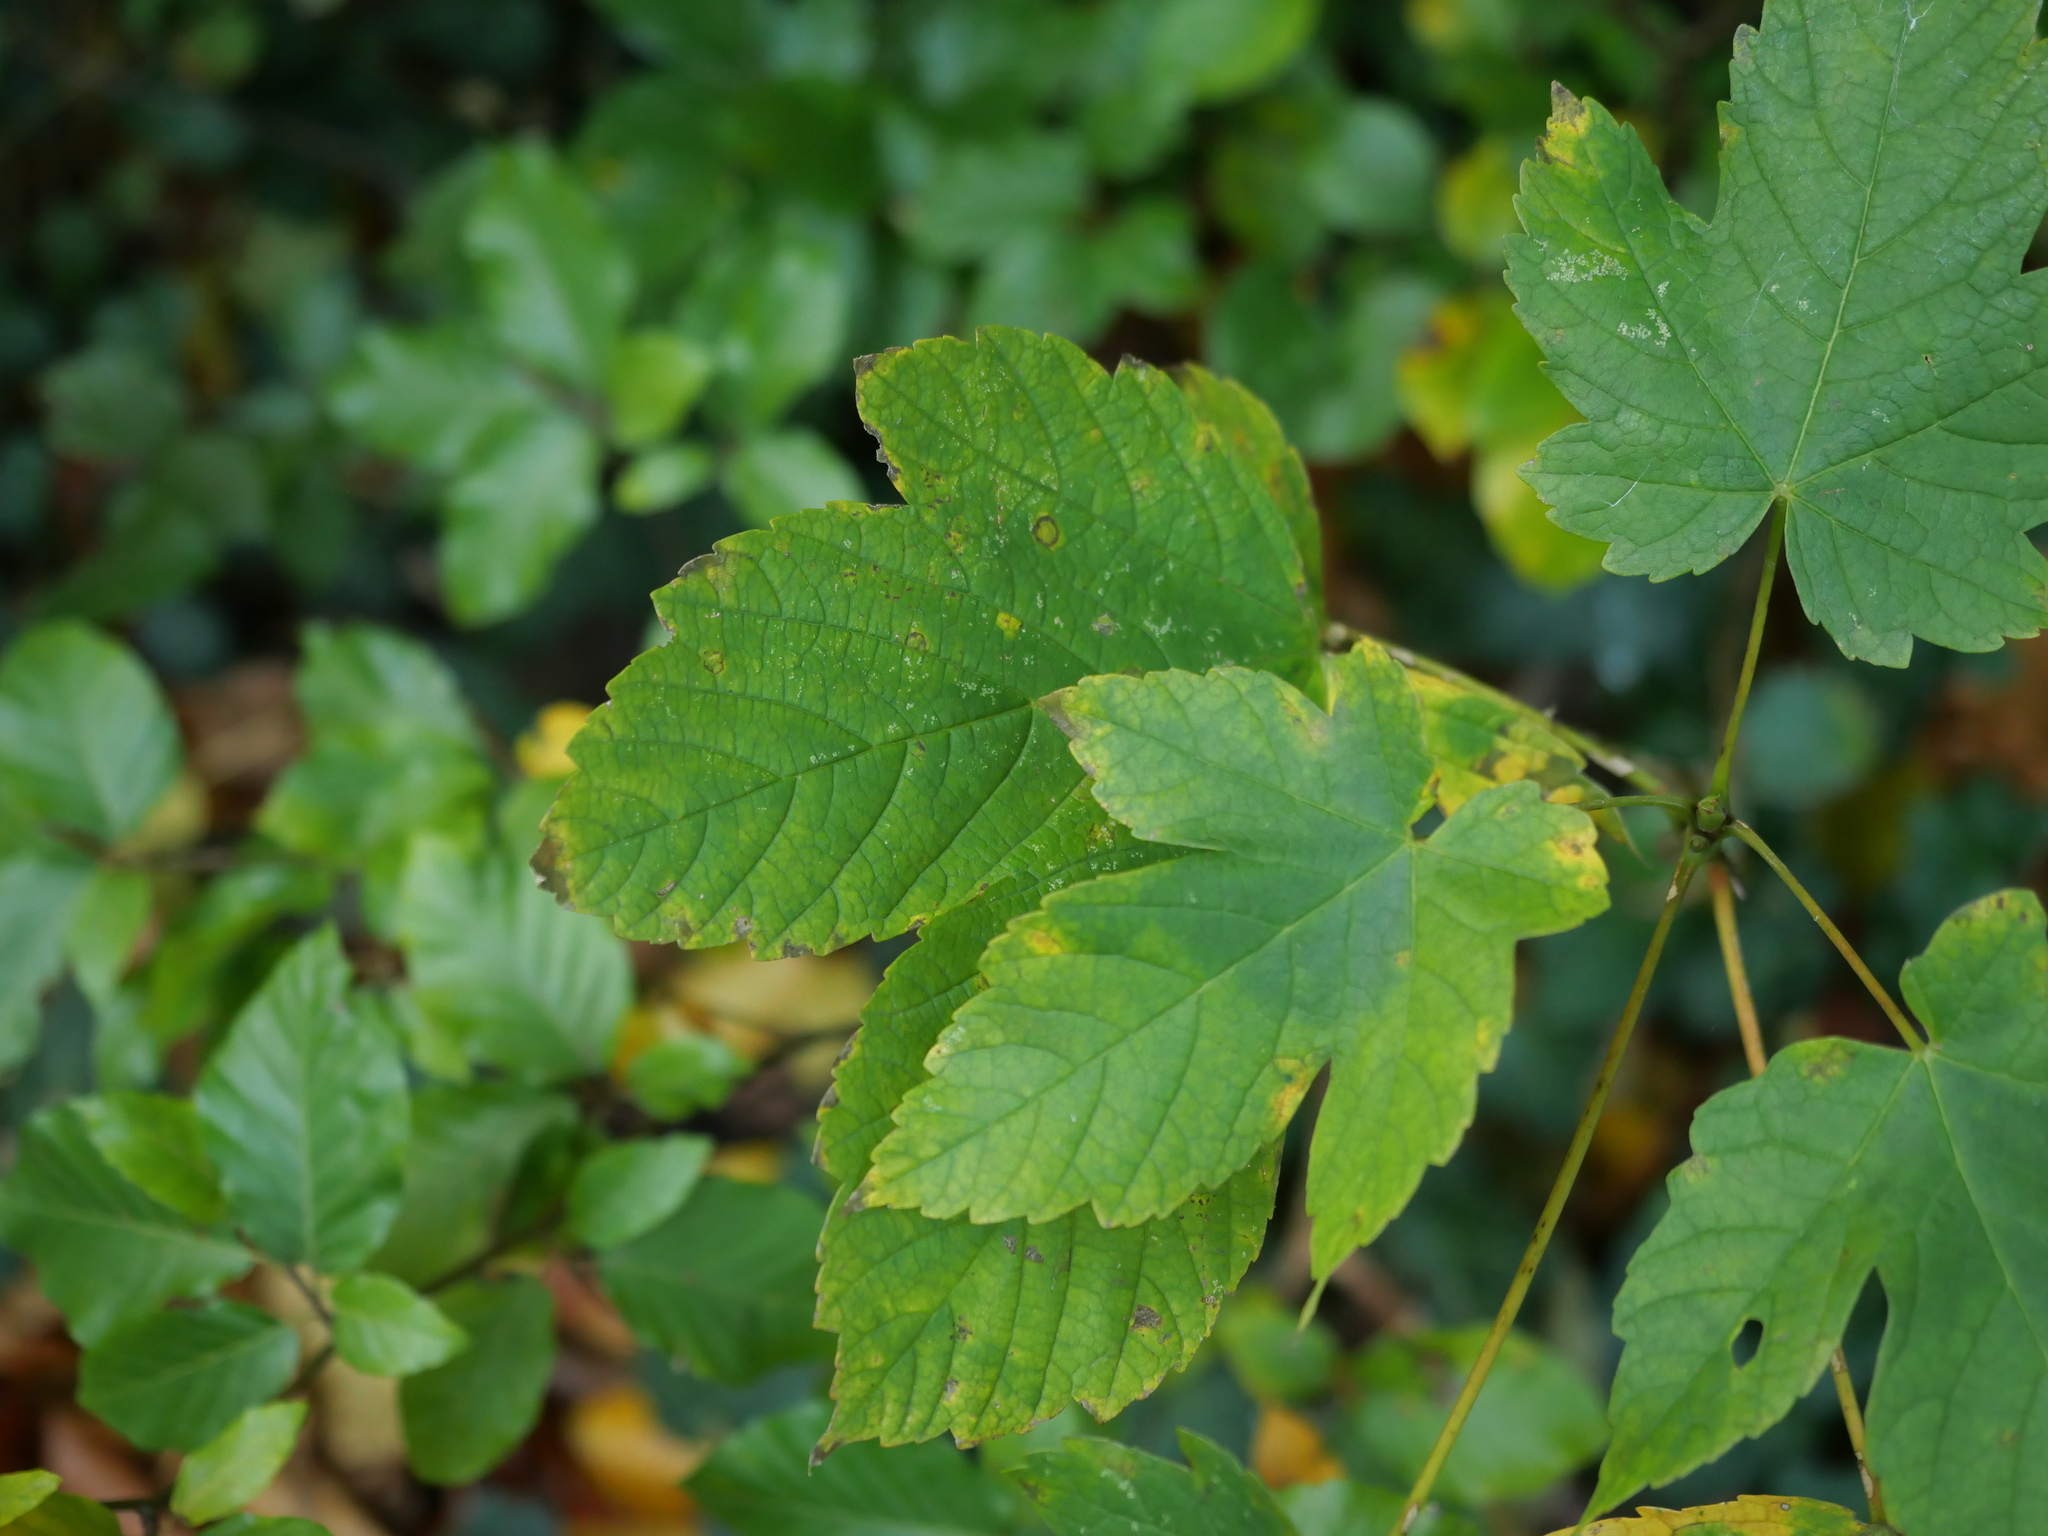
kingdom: Plantae
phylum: Tracheophyta
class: Magnoliopsida
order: Sapindales
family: Sapindaceae
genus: Acer
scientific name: Acer pseudoplatanus
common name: Sycamore
